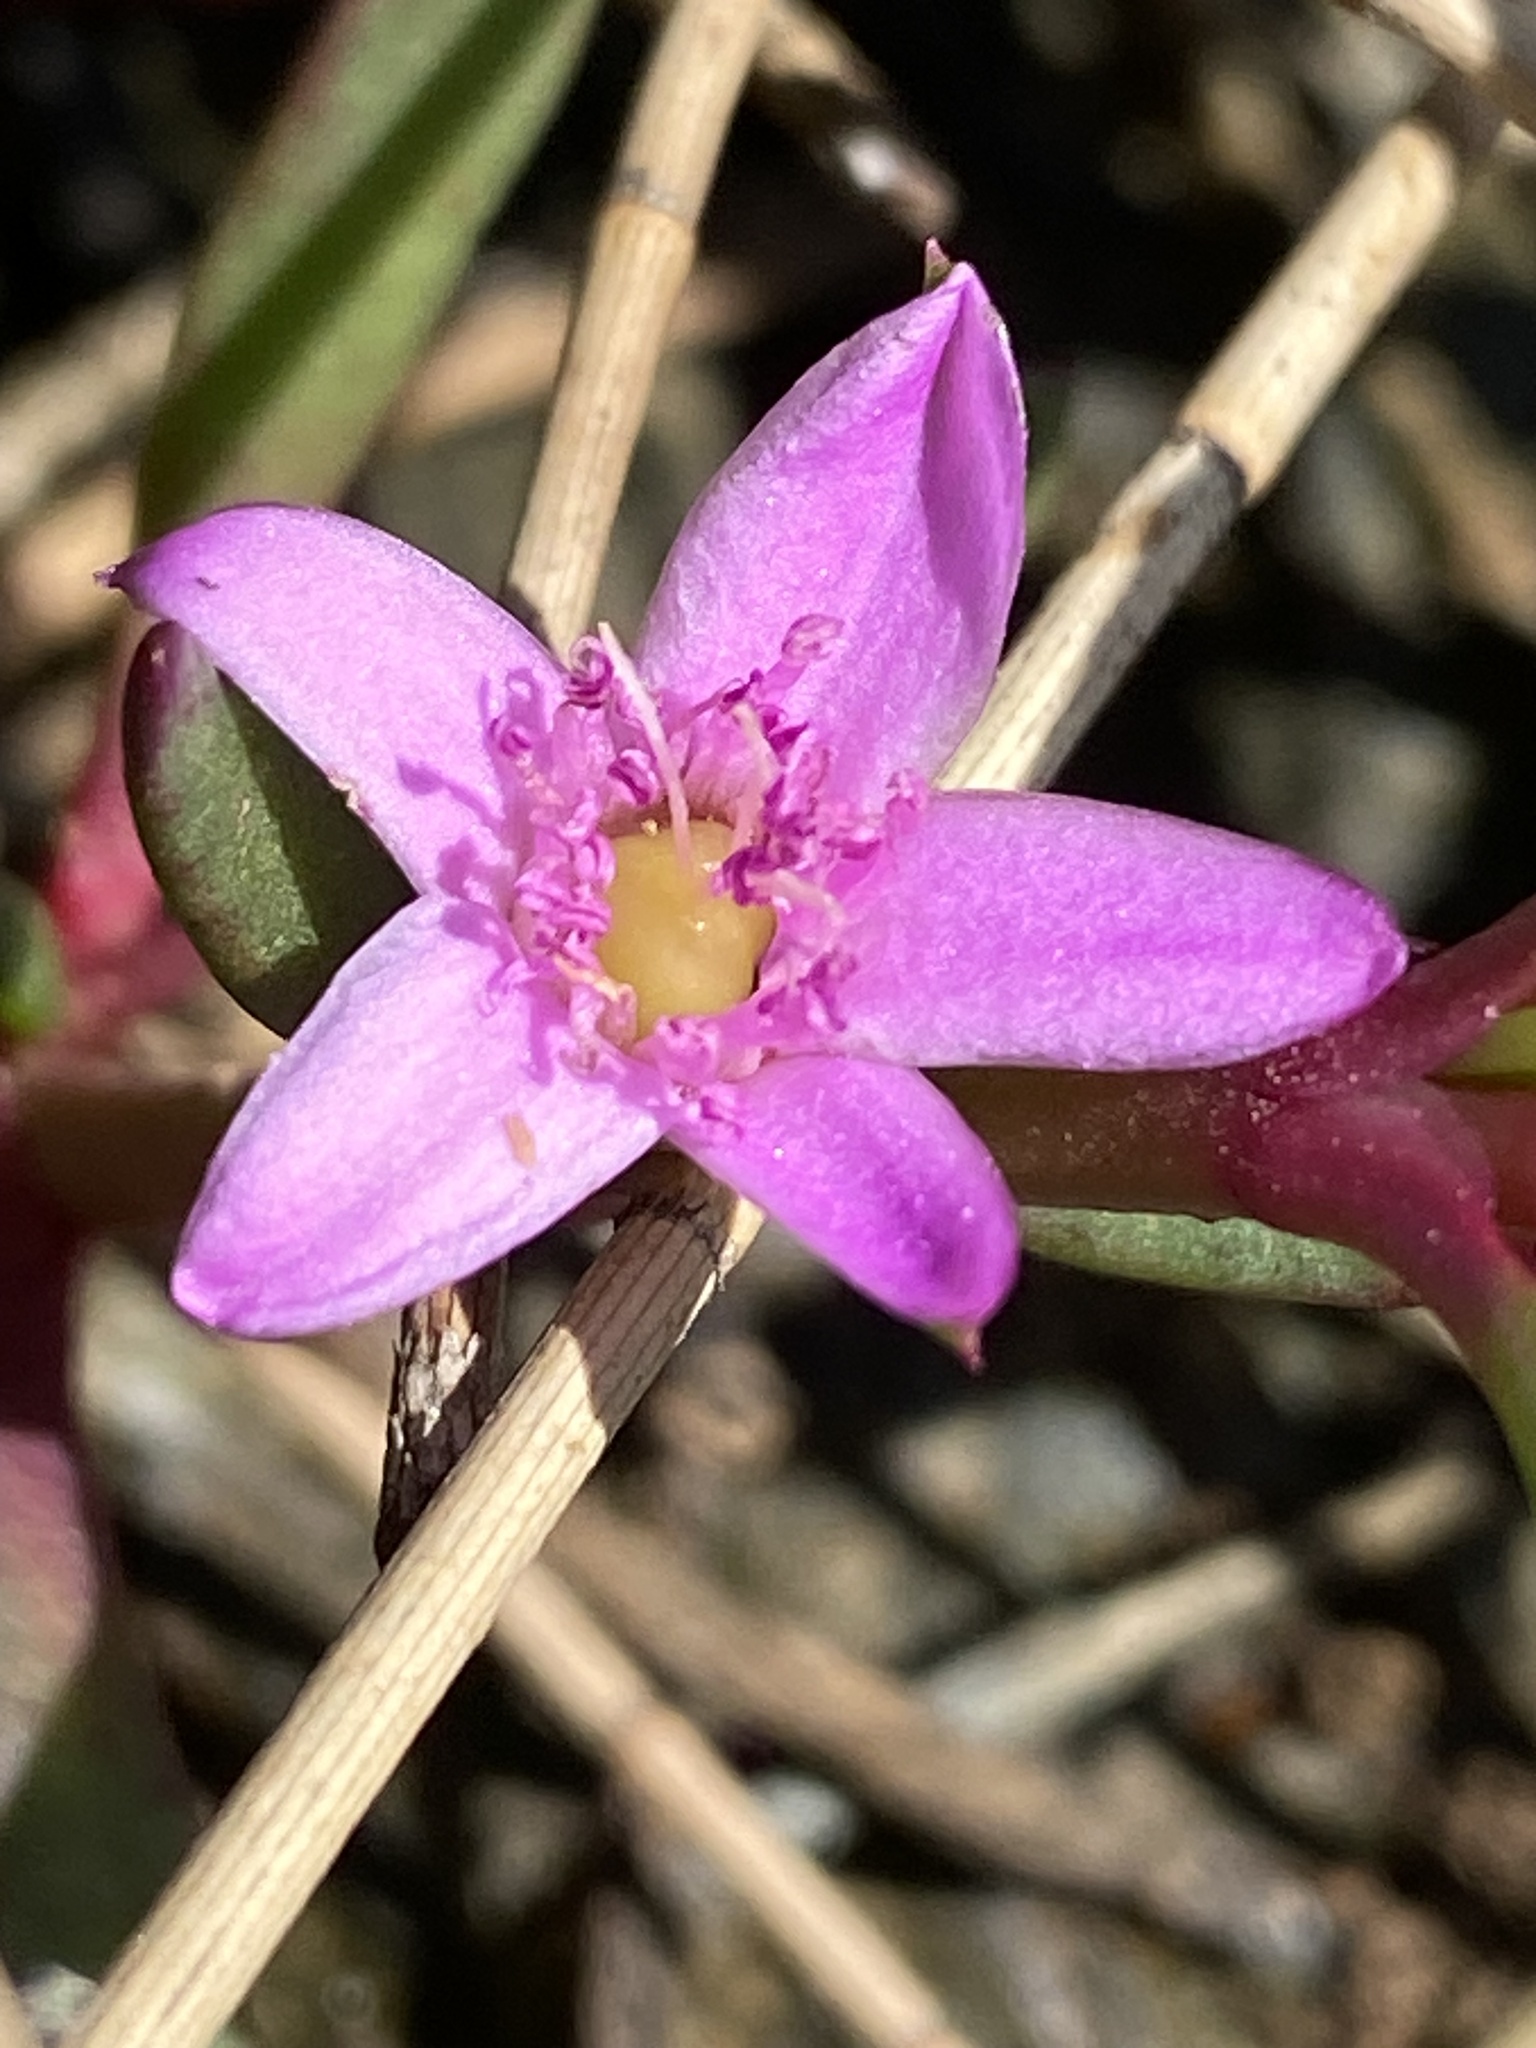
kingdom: Plantae
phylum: Tracheophyta
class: Magnoliopsida
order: Caryophyllales
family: Aizoaceae
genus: Sesuvium
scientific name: Sesuvium portulacastrum
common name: Sea-purslane
